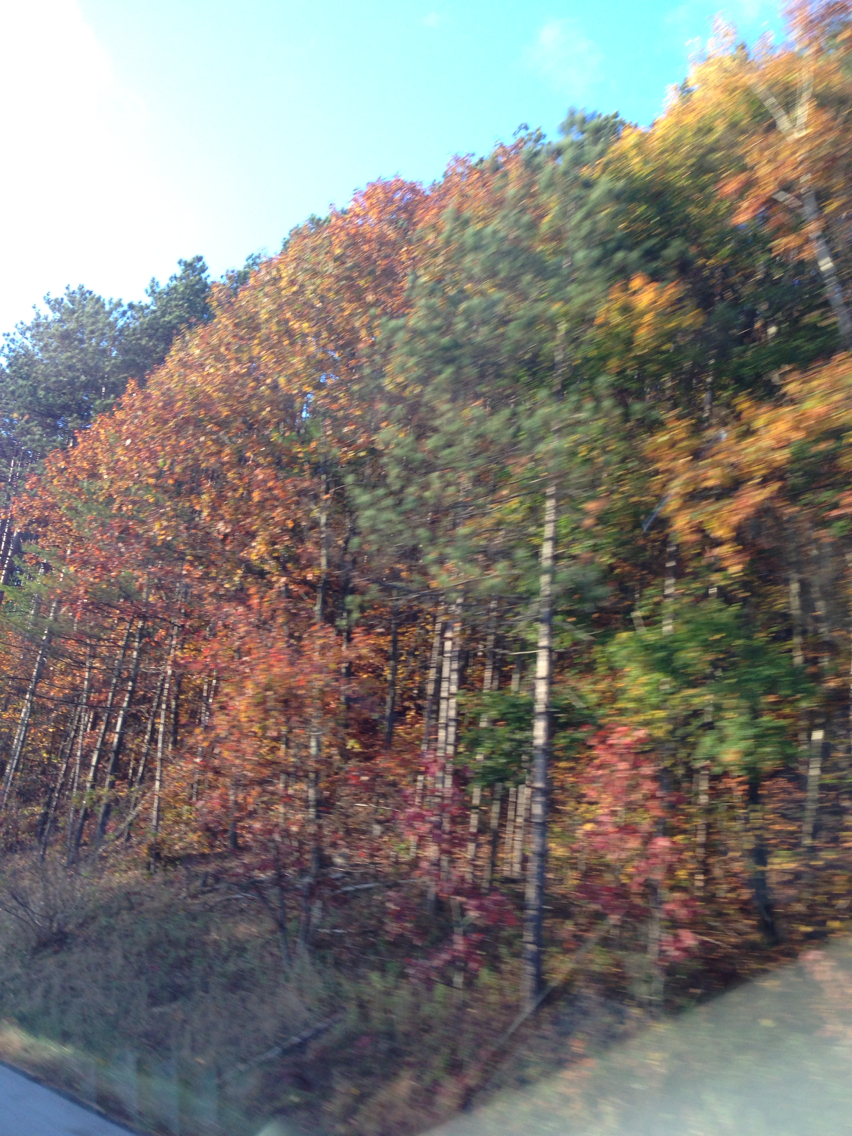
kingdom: Plantae
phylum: Tracheophyta
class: Magnoliopsida
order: Fagales
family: Fagaceae
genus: Quercus
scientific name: Quercus rubra
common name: Red oak
